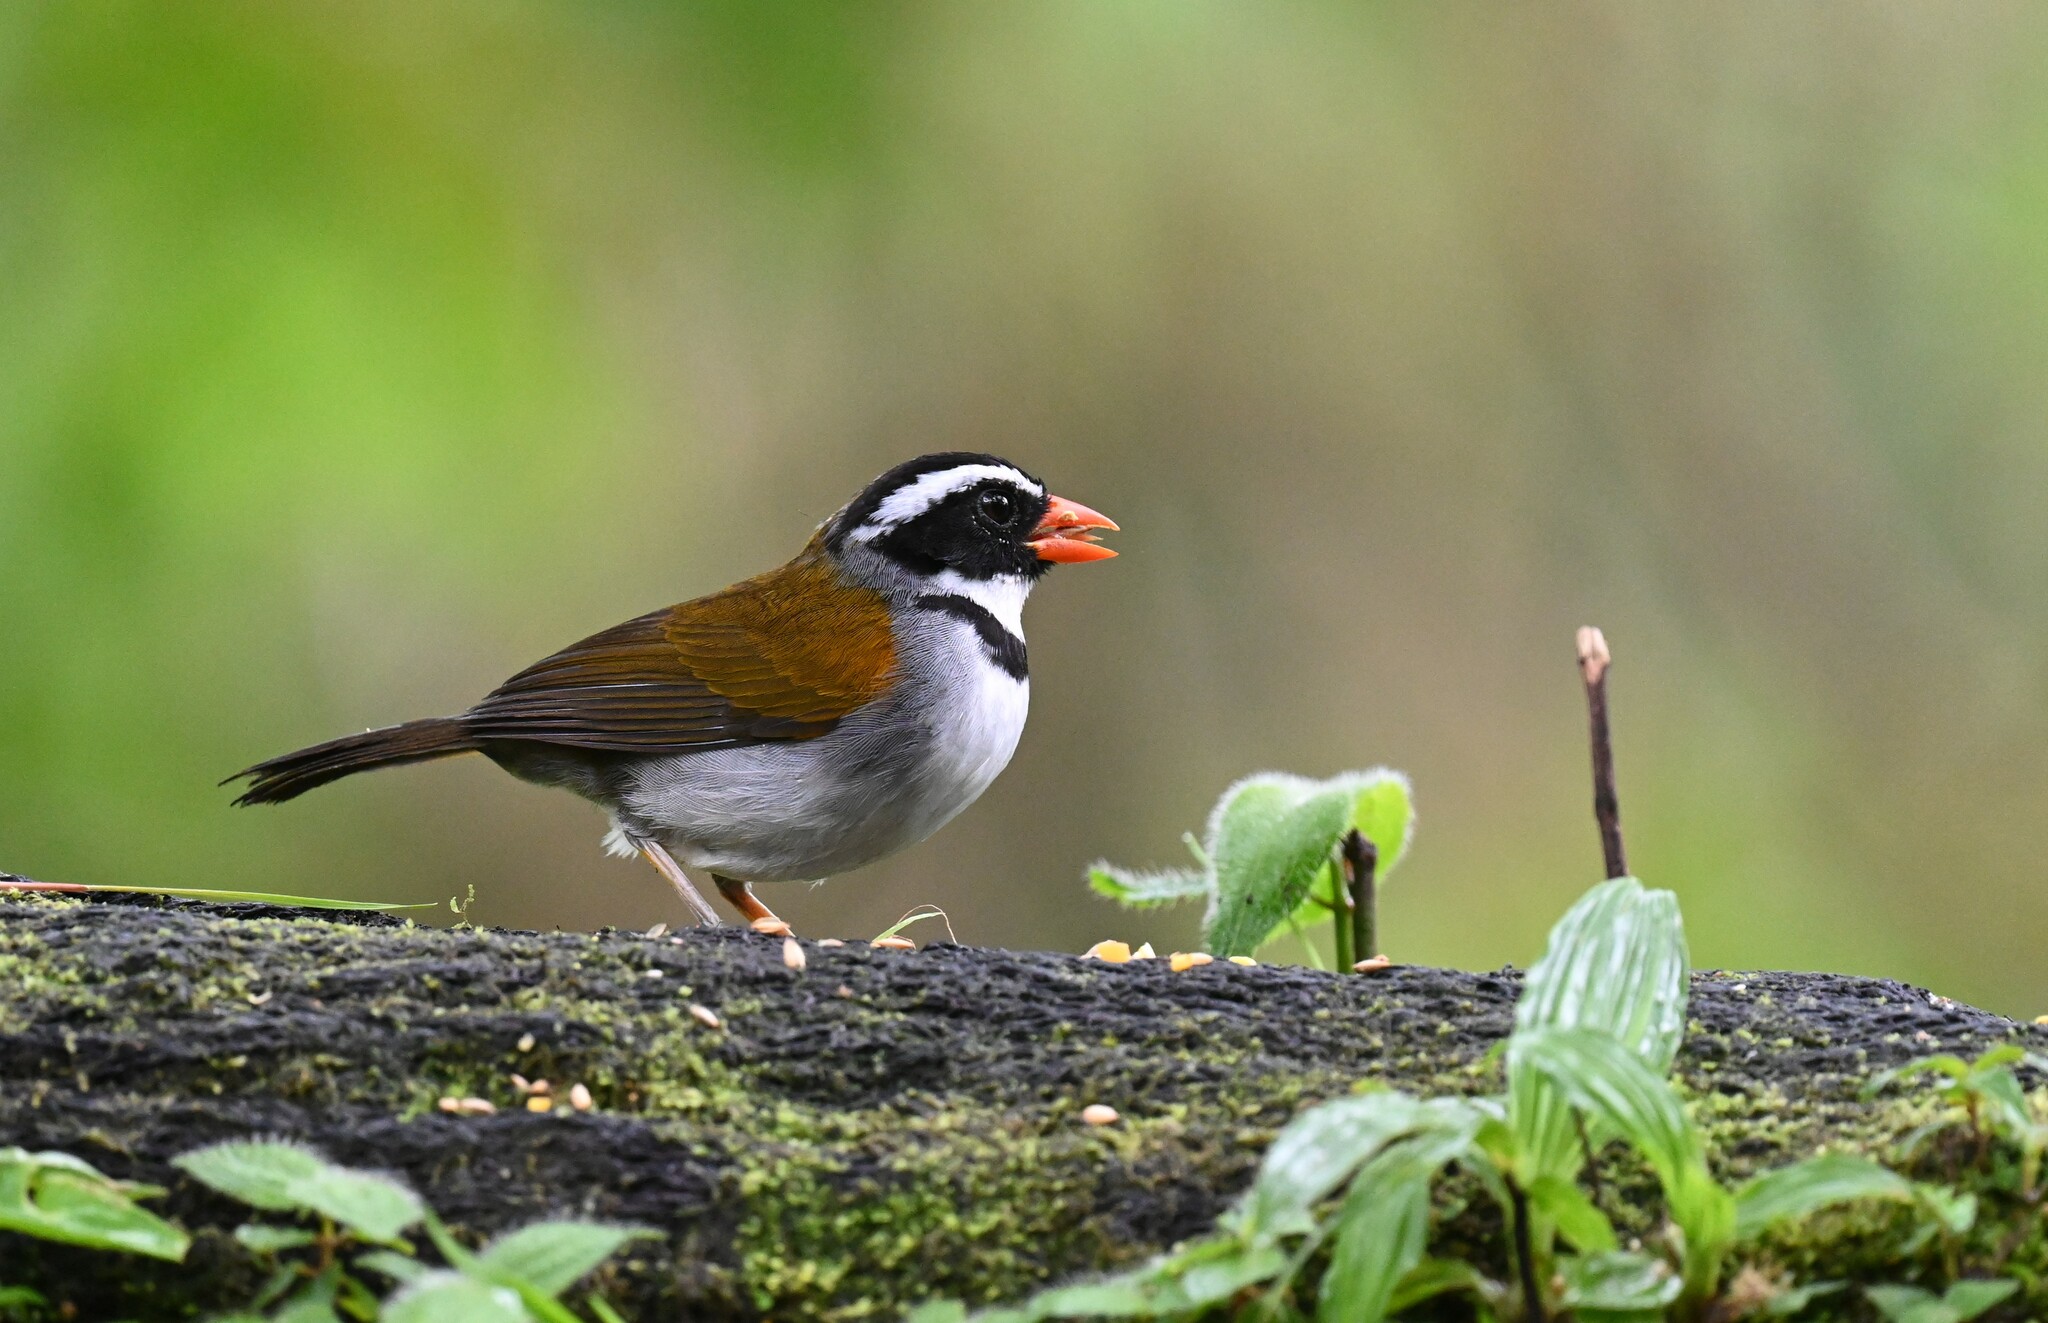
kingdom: Animalia
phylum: Chordata
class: Aves
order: Passeriformes
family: Passerellidae
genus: Arremon
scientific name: Arremon aurantiirostris
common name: Orange-billed sparrow
